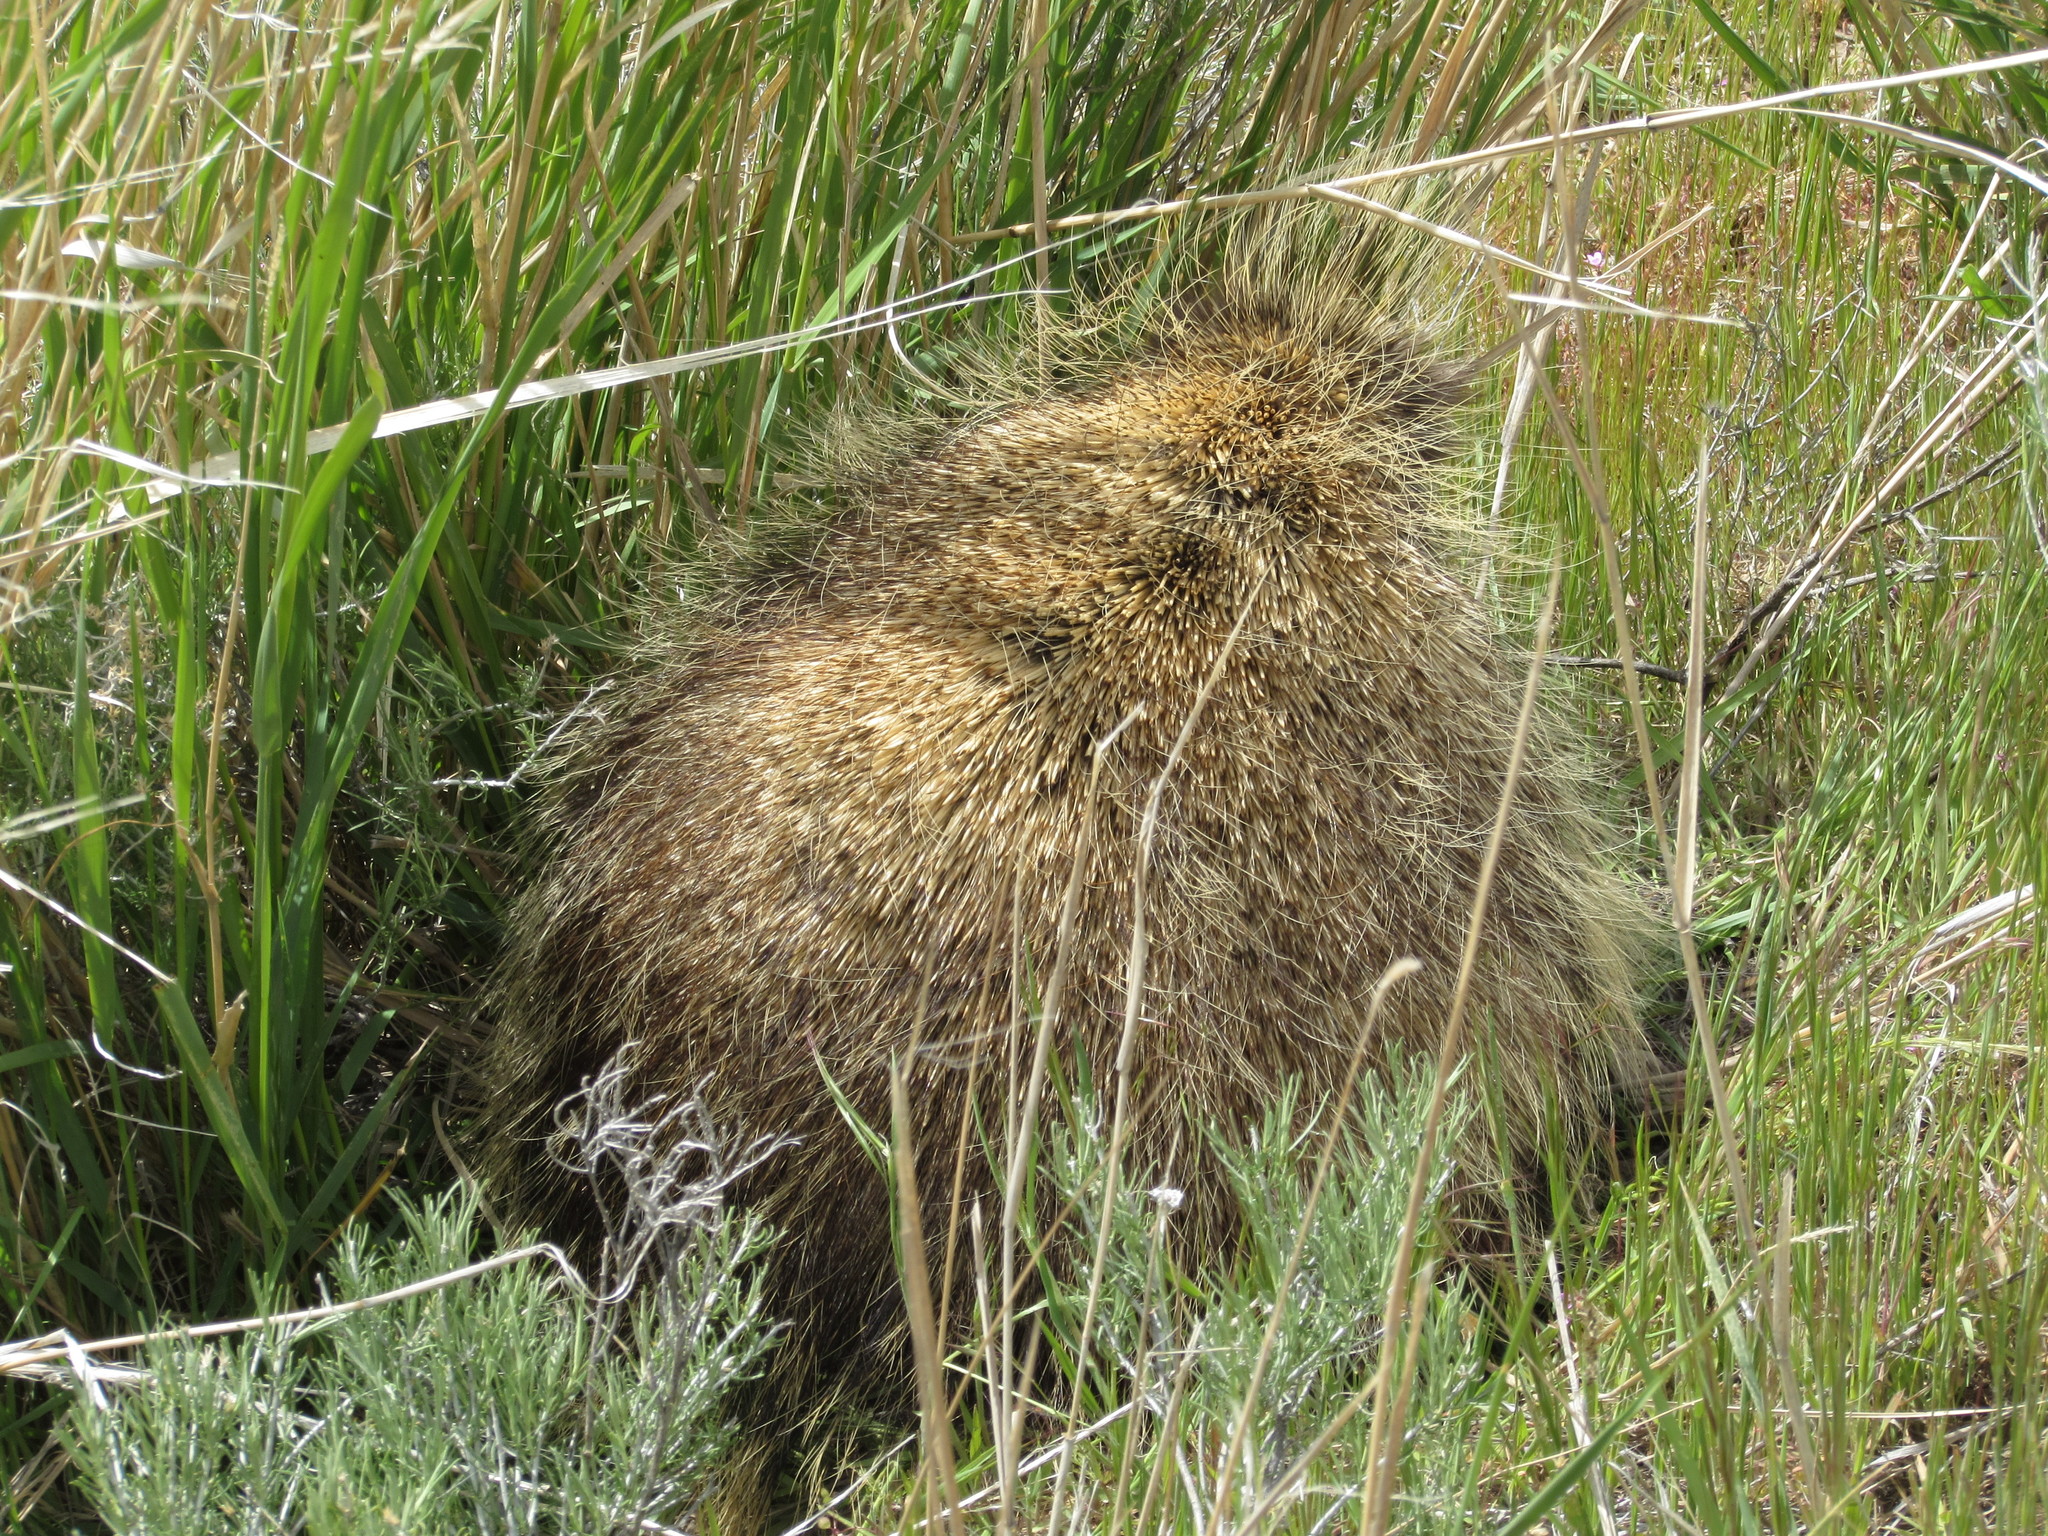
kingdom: Animalia
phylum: Chordata
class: Mammalia
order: Rodentia
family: Erethizontidae
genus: Erethizon
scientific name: Erethizon dorsatus
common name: North american porcupine
